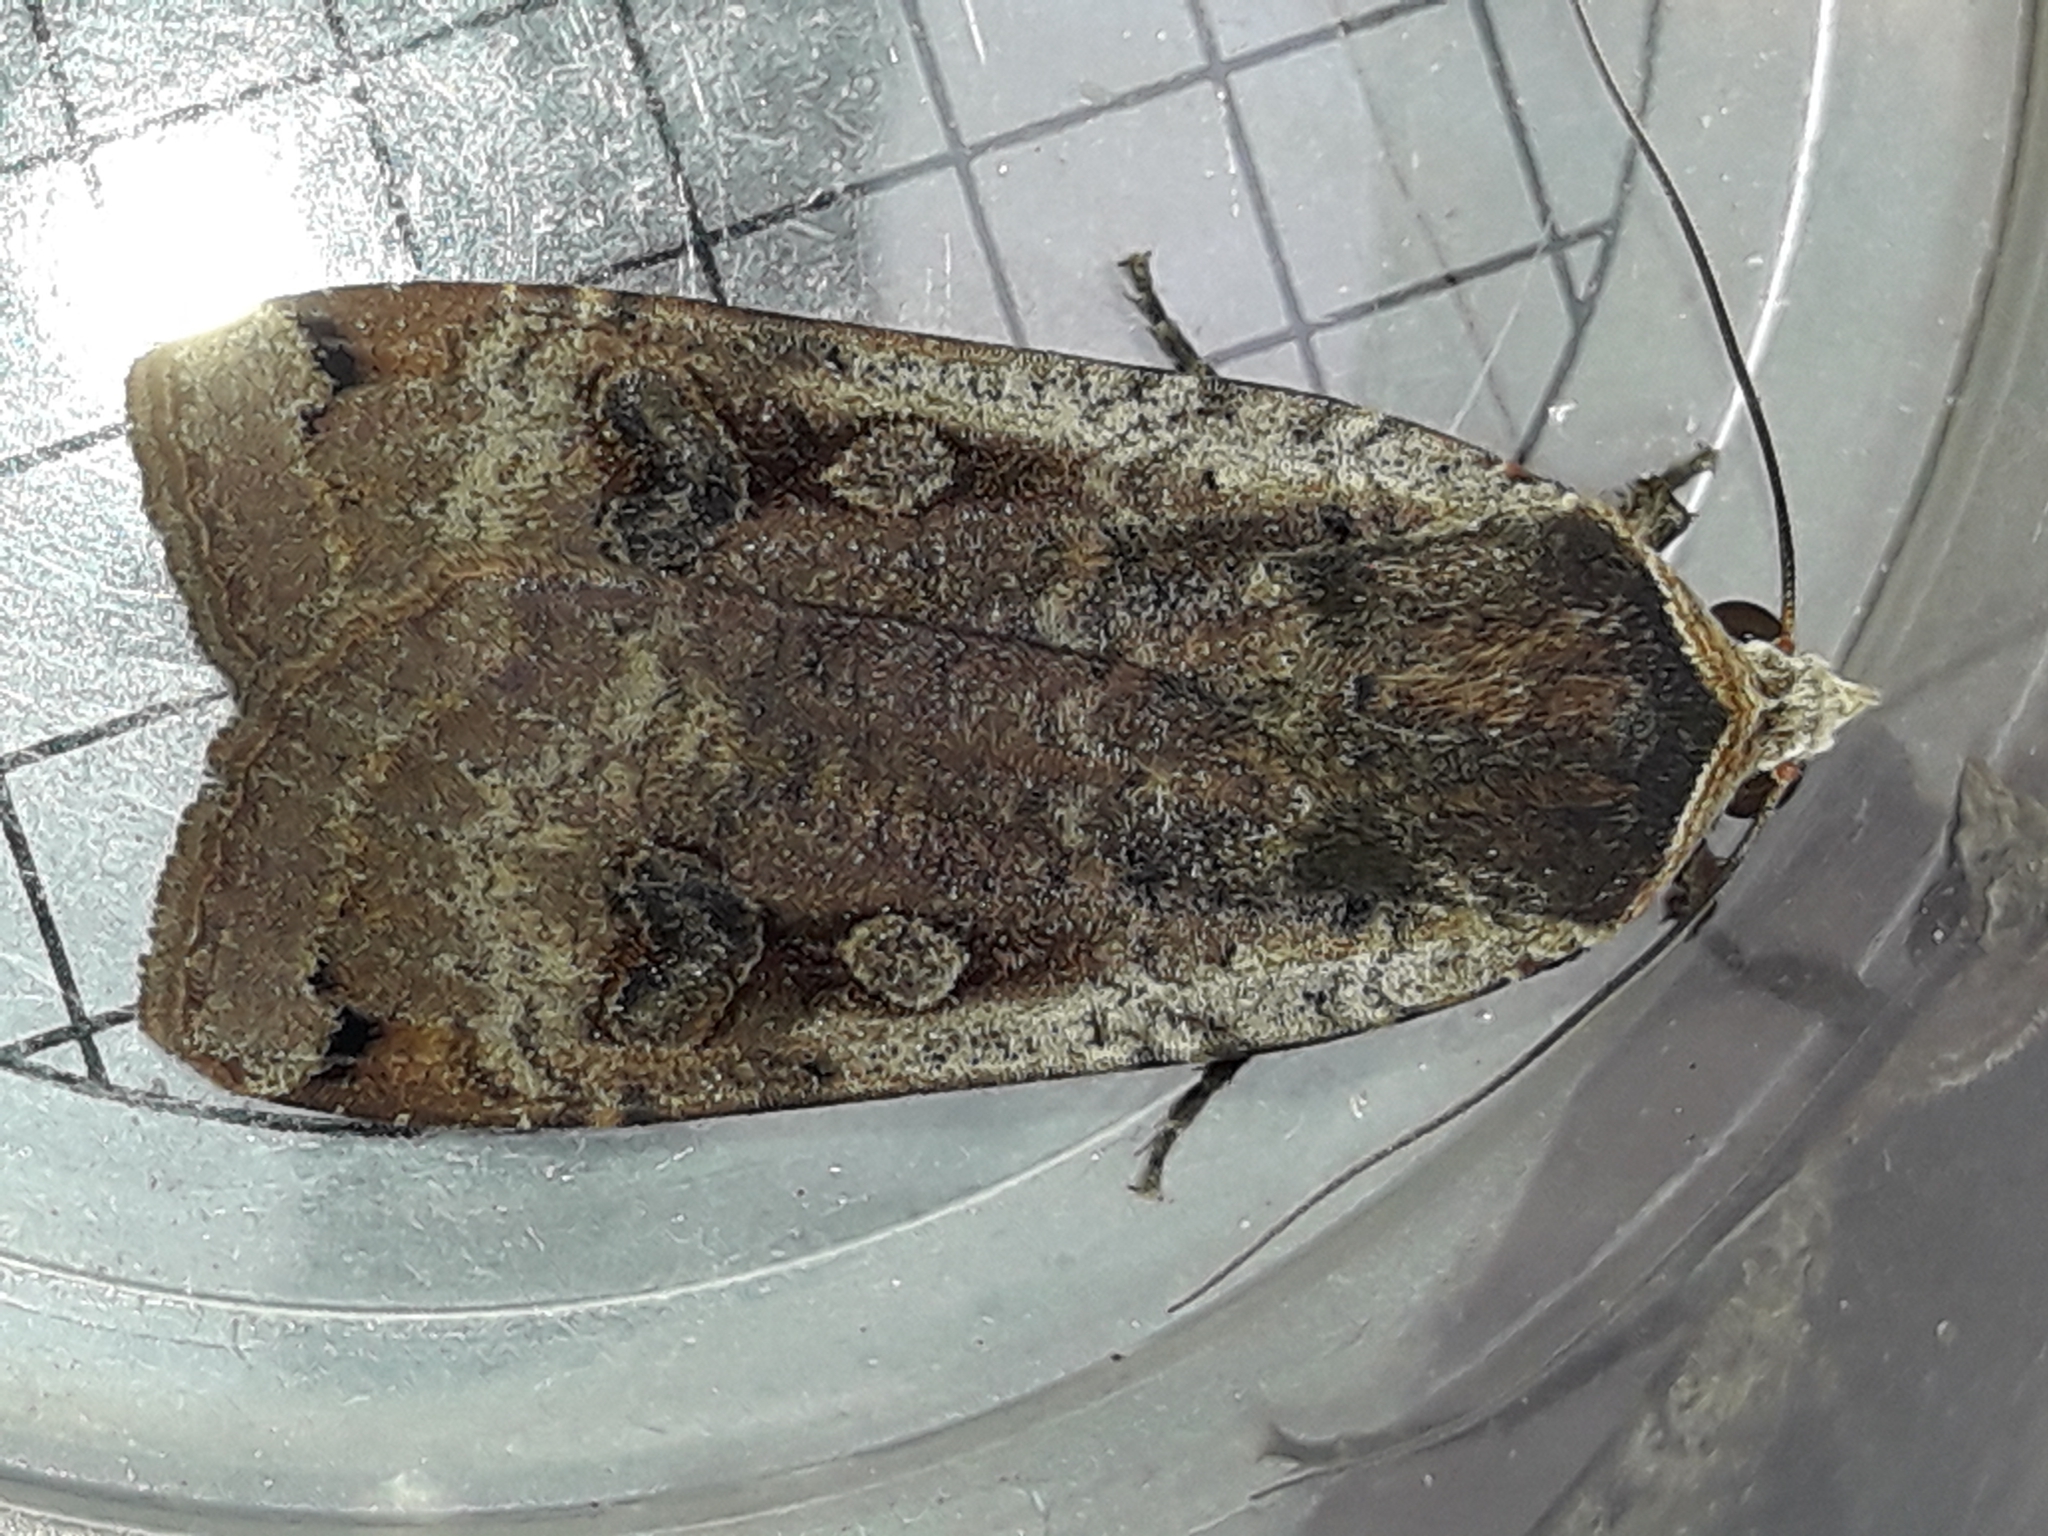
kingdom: Animalia
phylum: Arthropoda
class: Insecta
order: Lepidoptera
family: Noctuidae
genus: Noctua
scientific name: Noctua pronuba
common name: Large yellow underwing
